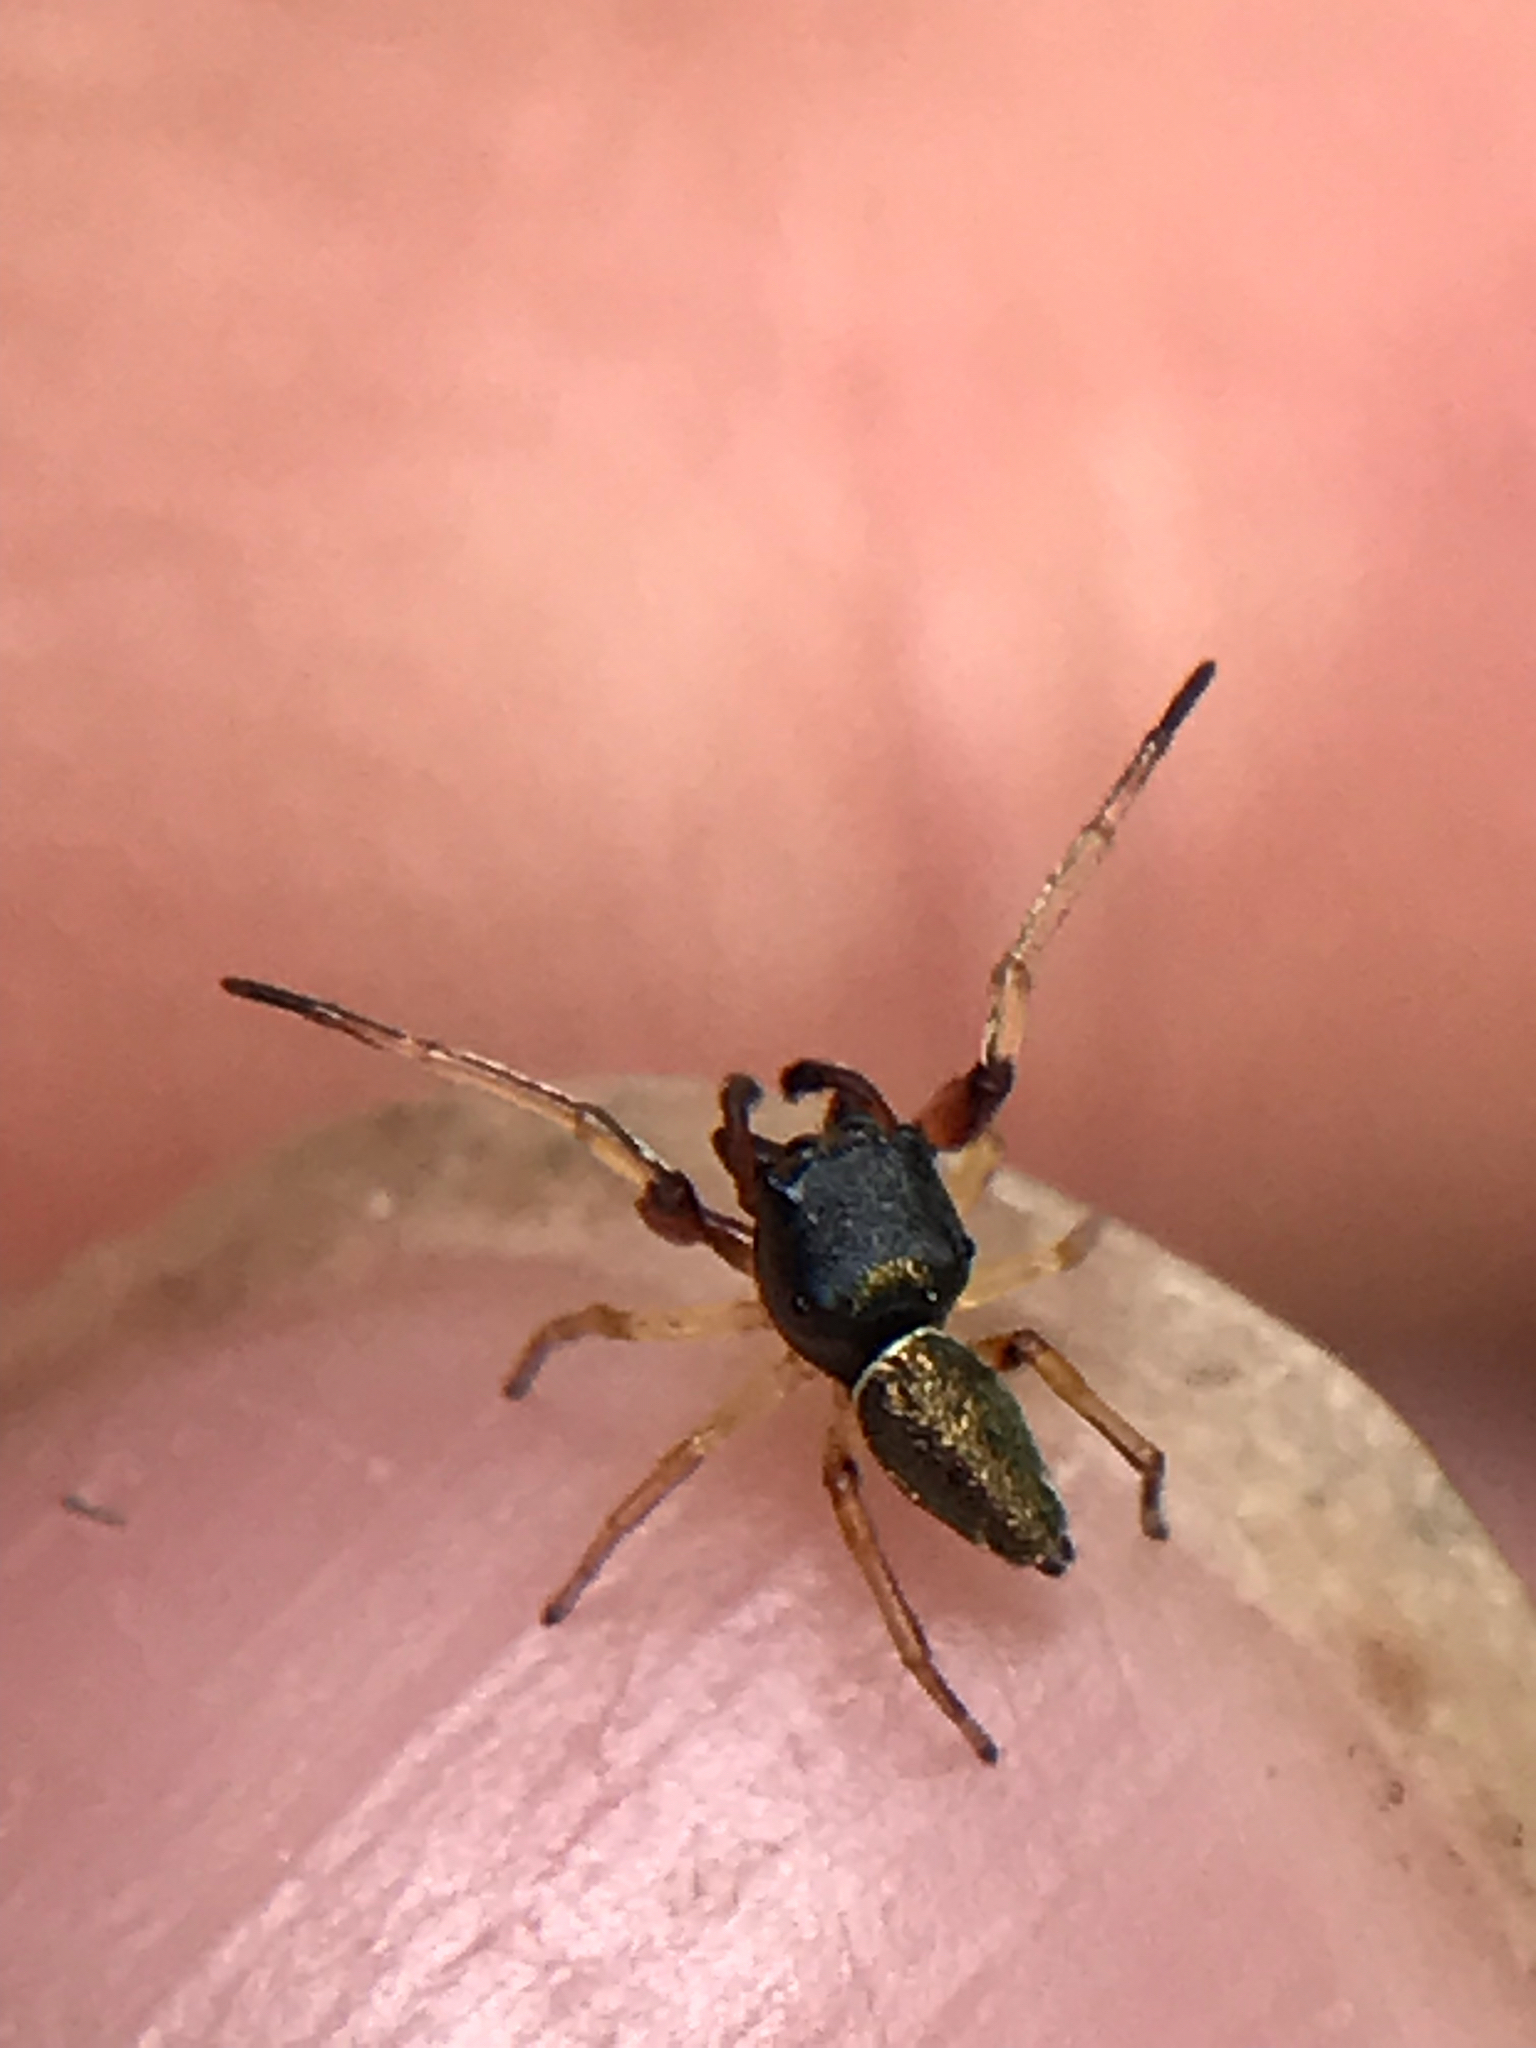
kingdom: Animalia
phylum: Arthropoda
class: Arachnida
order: Araneae
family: Salticidae
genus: Zygoballus
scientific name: Zygoballus rufipes
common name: Jumping spiders
